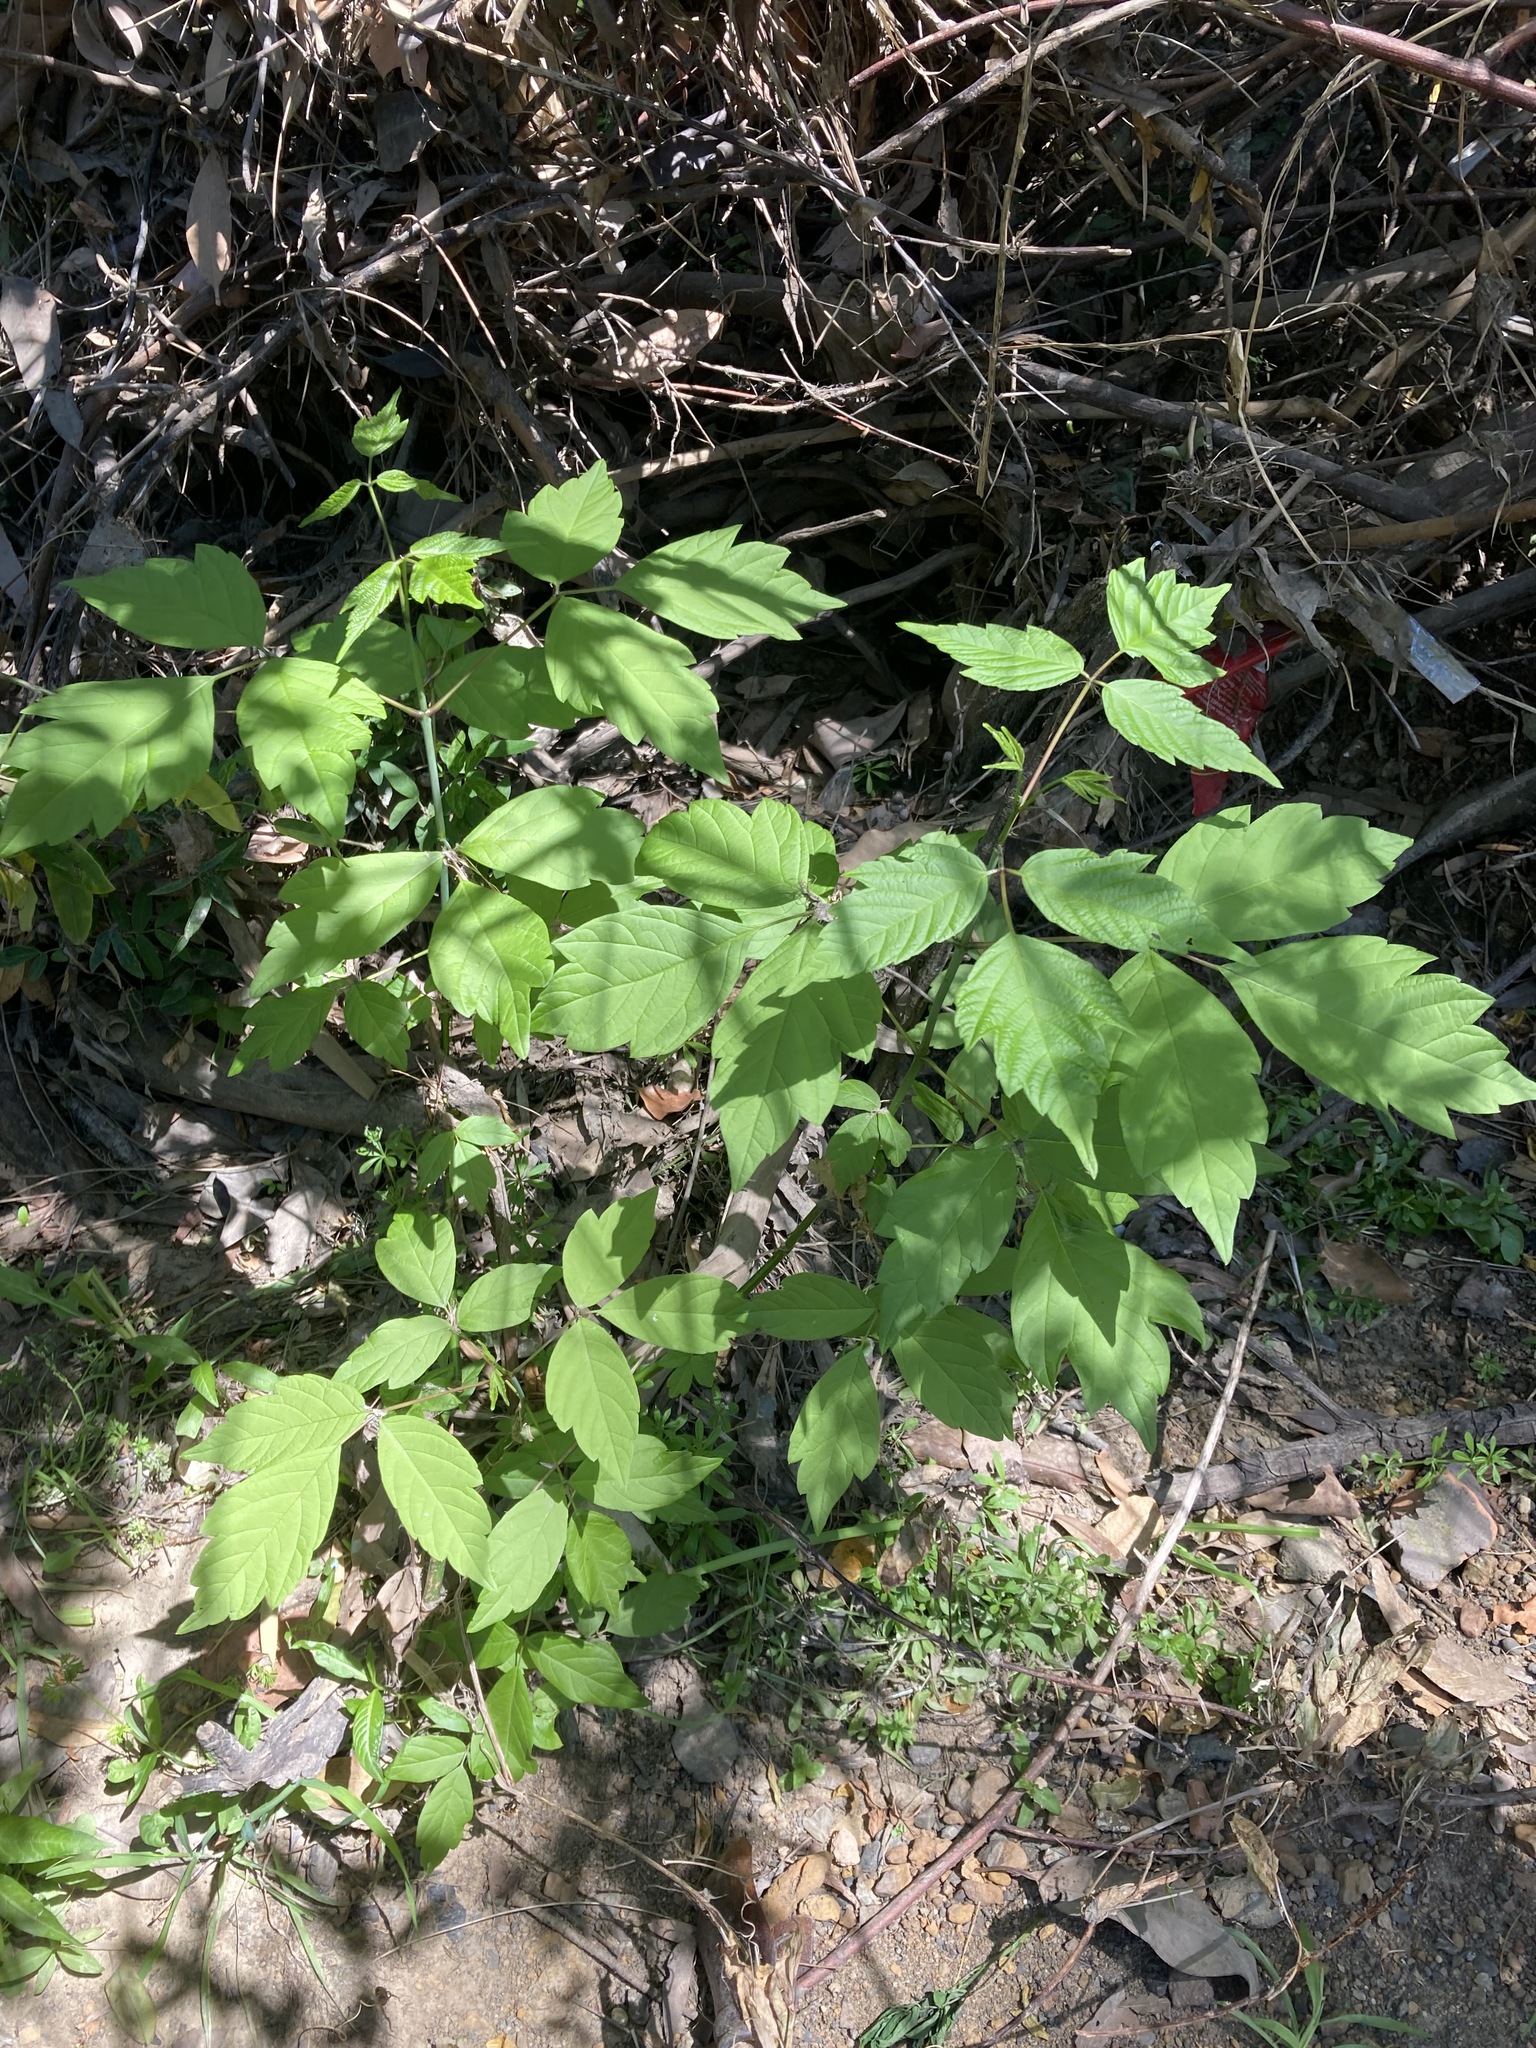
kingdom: Plantae
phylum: Tracheophyta
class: Magnoliopsida
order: Sapindales
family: Sapindaceae
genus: Acer
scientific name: Acer negundo
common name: Ashleaf maple
